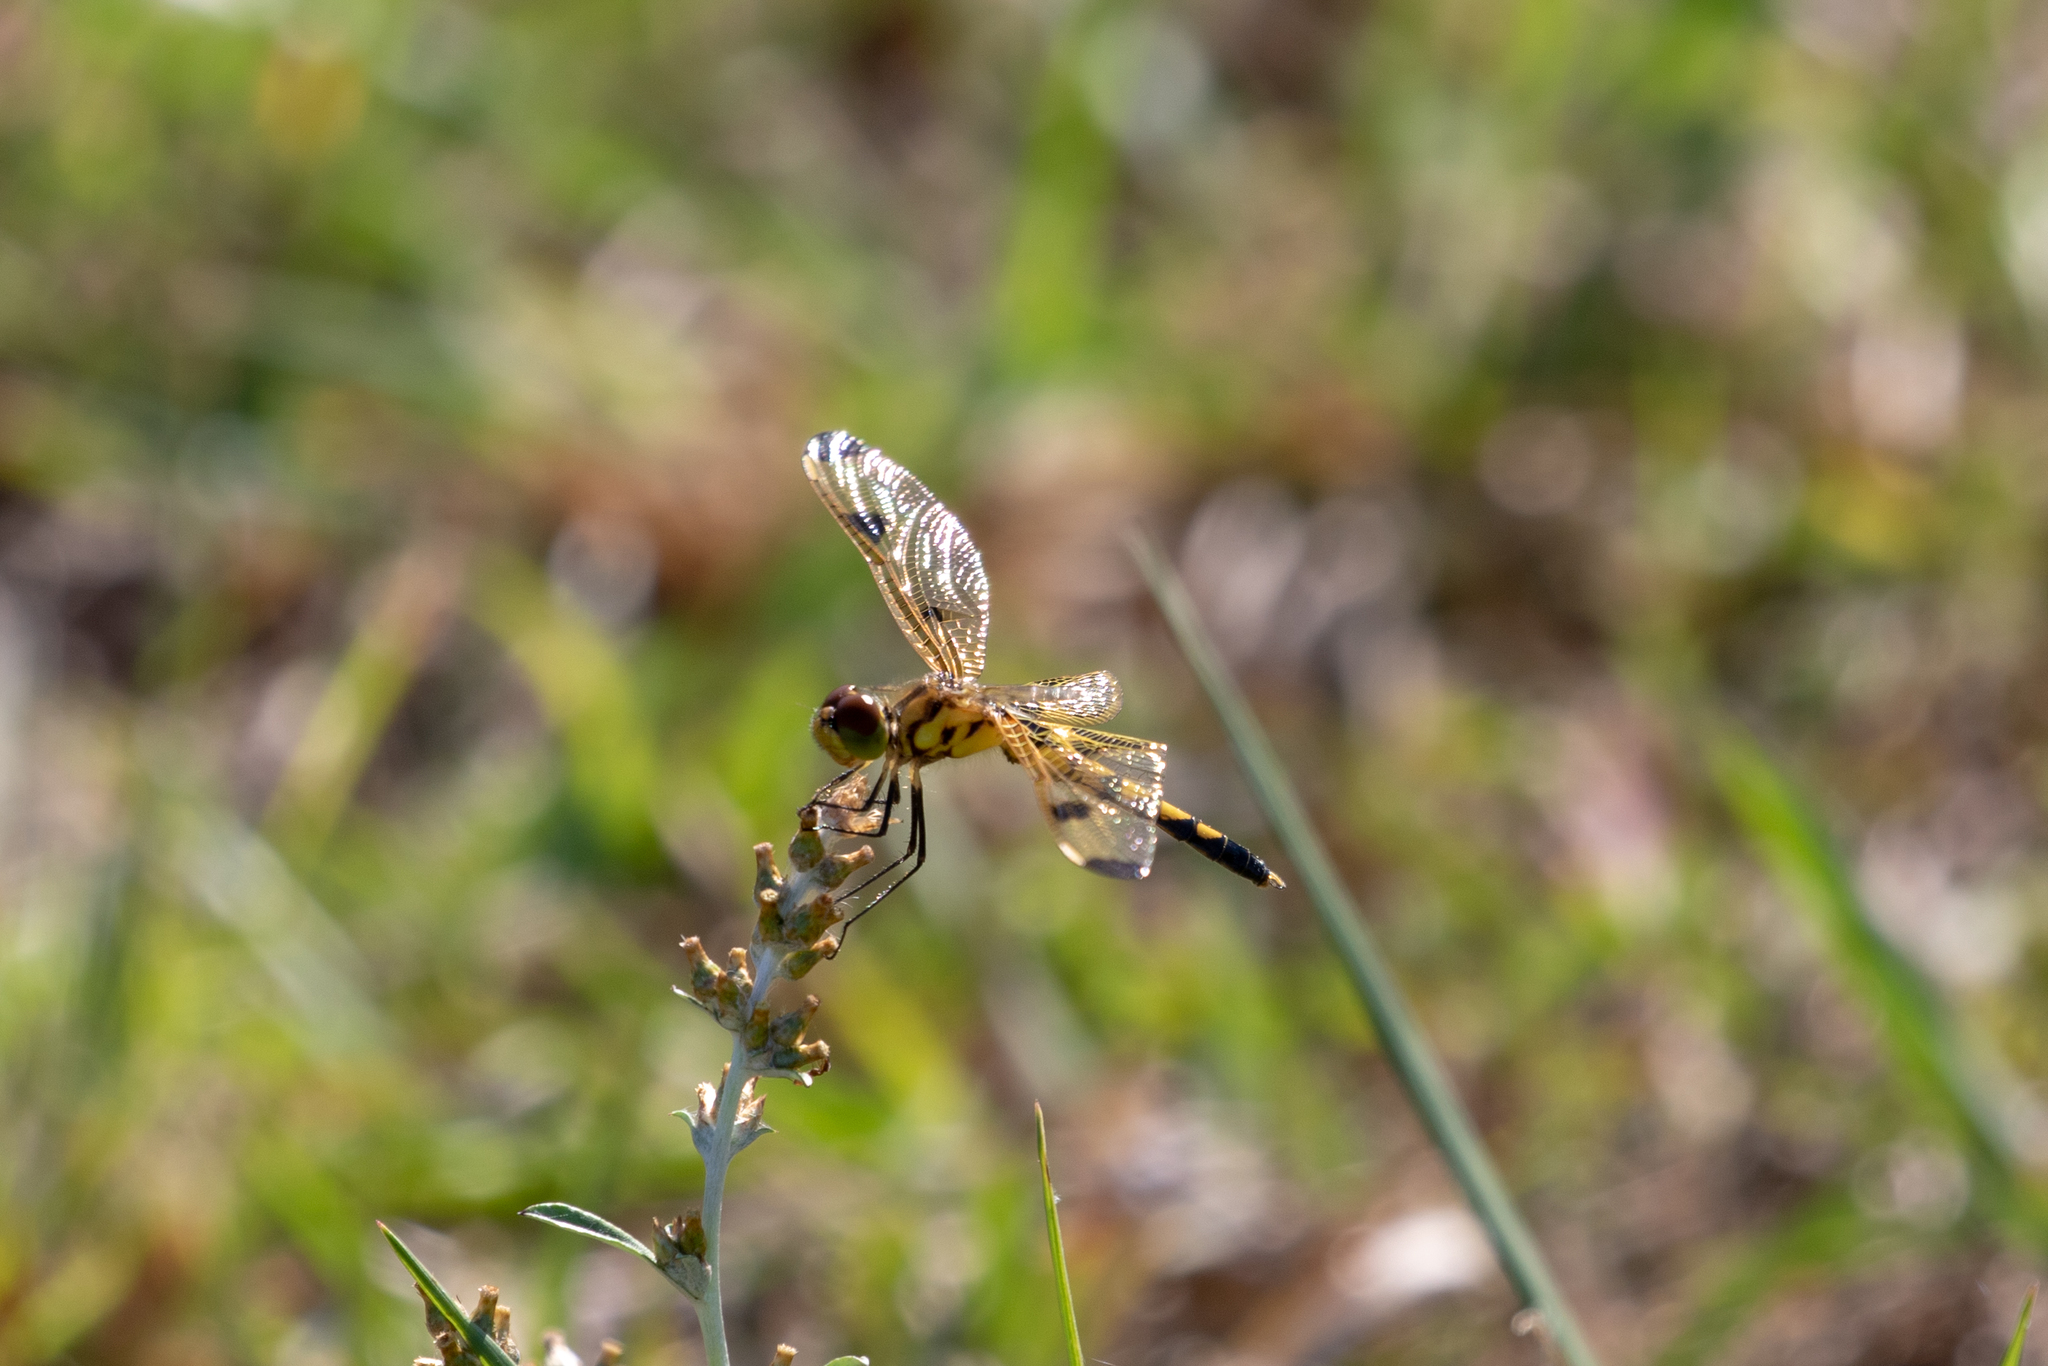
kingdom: Animalia
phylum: Arthropoda
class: Insecta
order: Odonata
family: Libellulidae
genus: Celithemis
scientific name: Celithemis elisa
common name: Calico pennant
